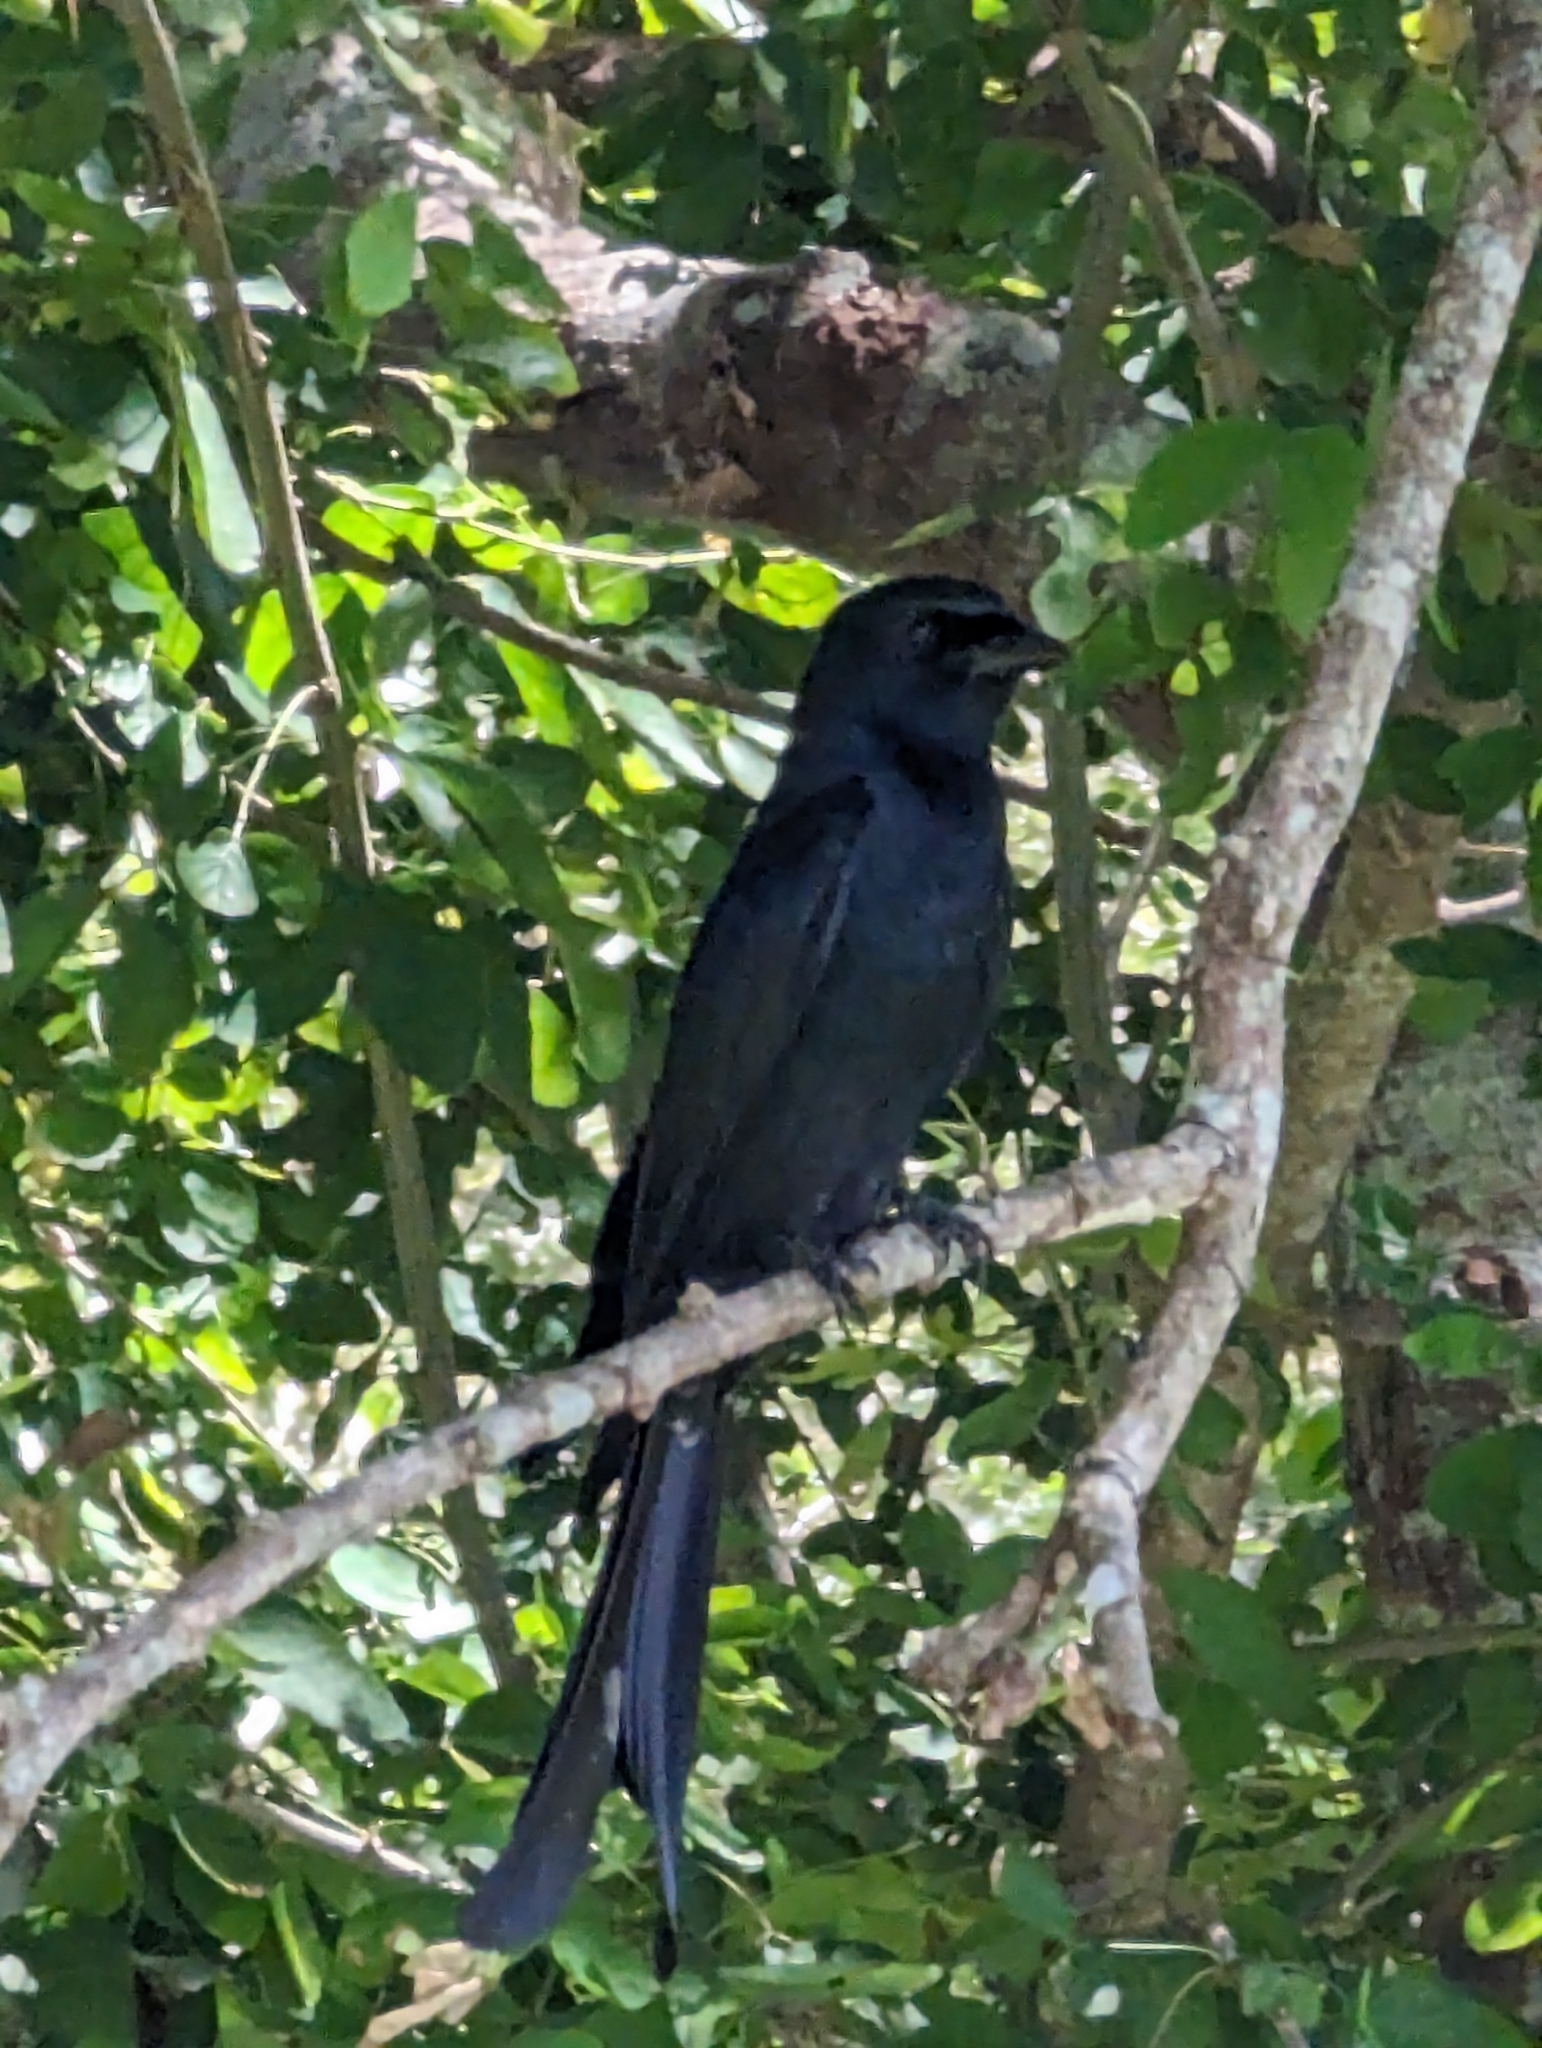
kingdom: Animalia
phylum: Chordata
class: Aves
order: Passeriformes
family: Dicruridae
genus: Dicrurus
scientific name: Dicrurus macrocercus
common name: Black drongo
